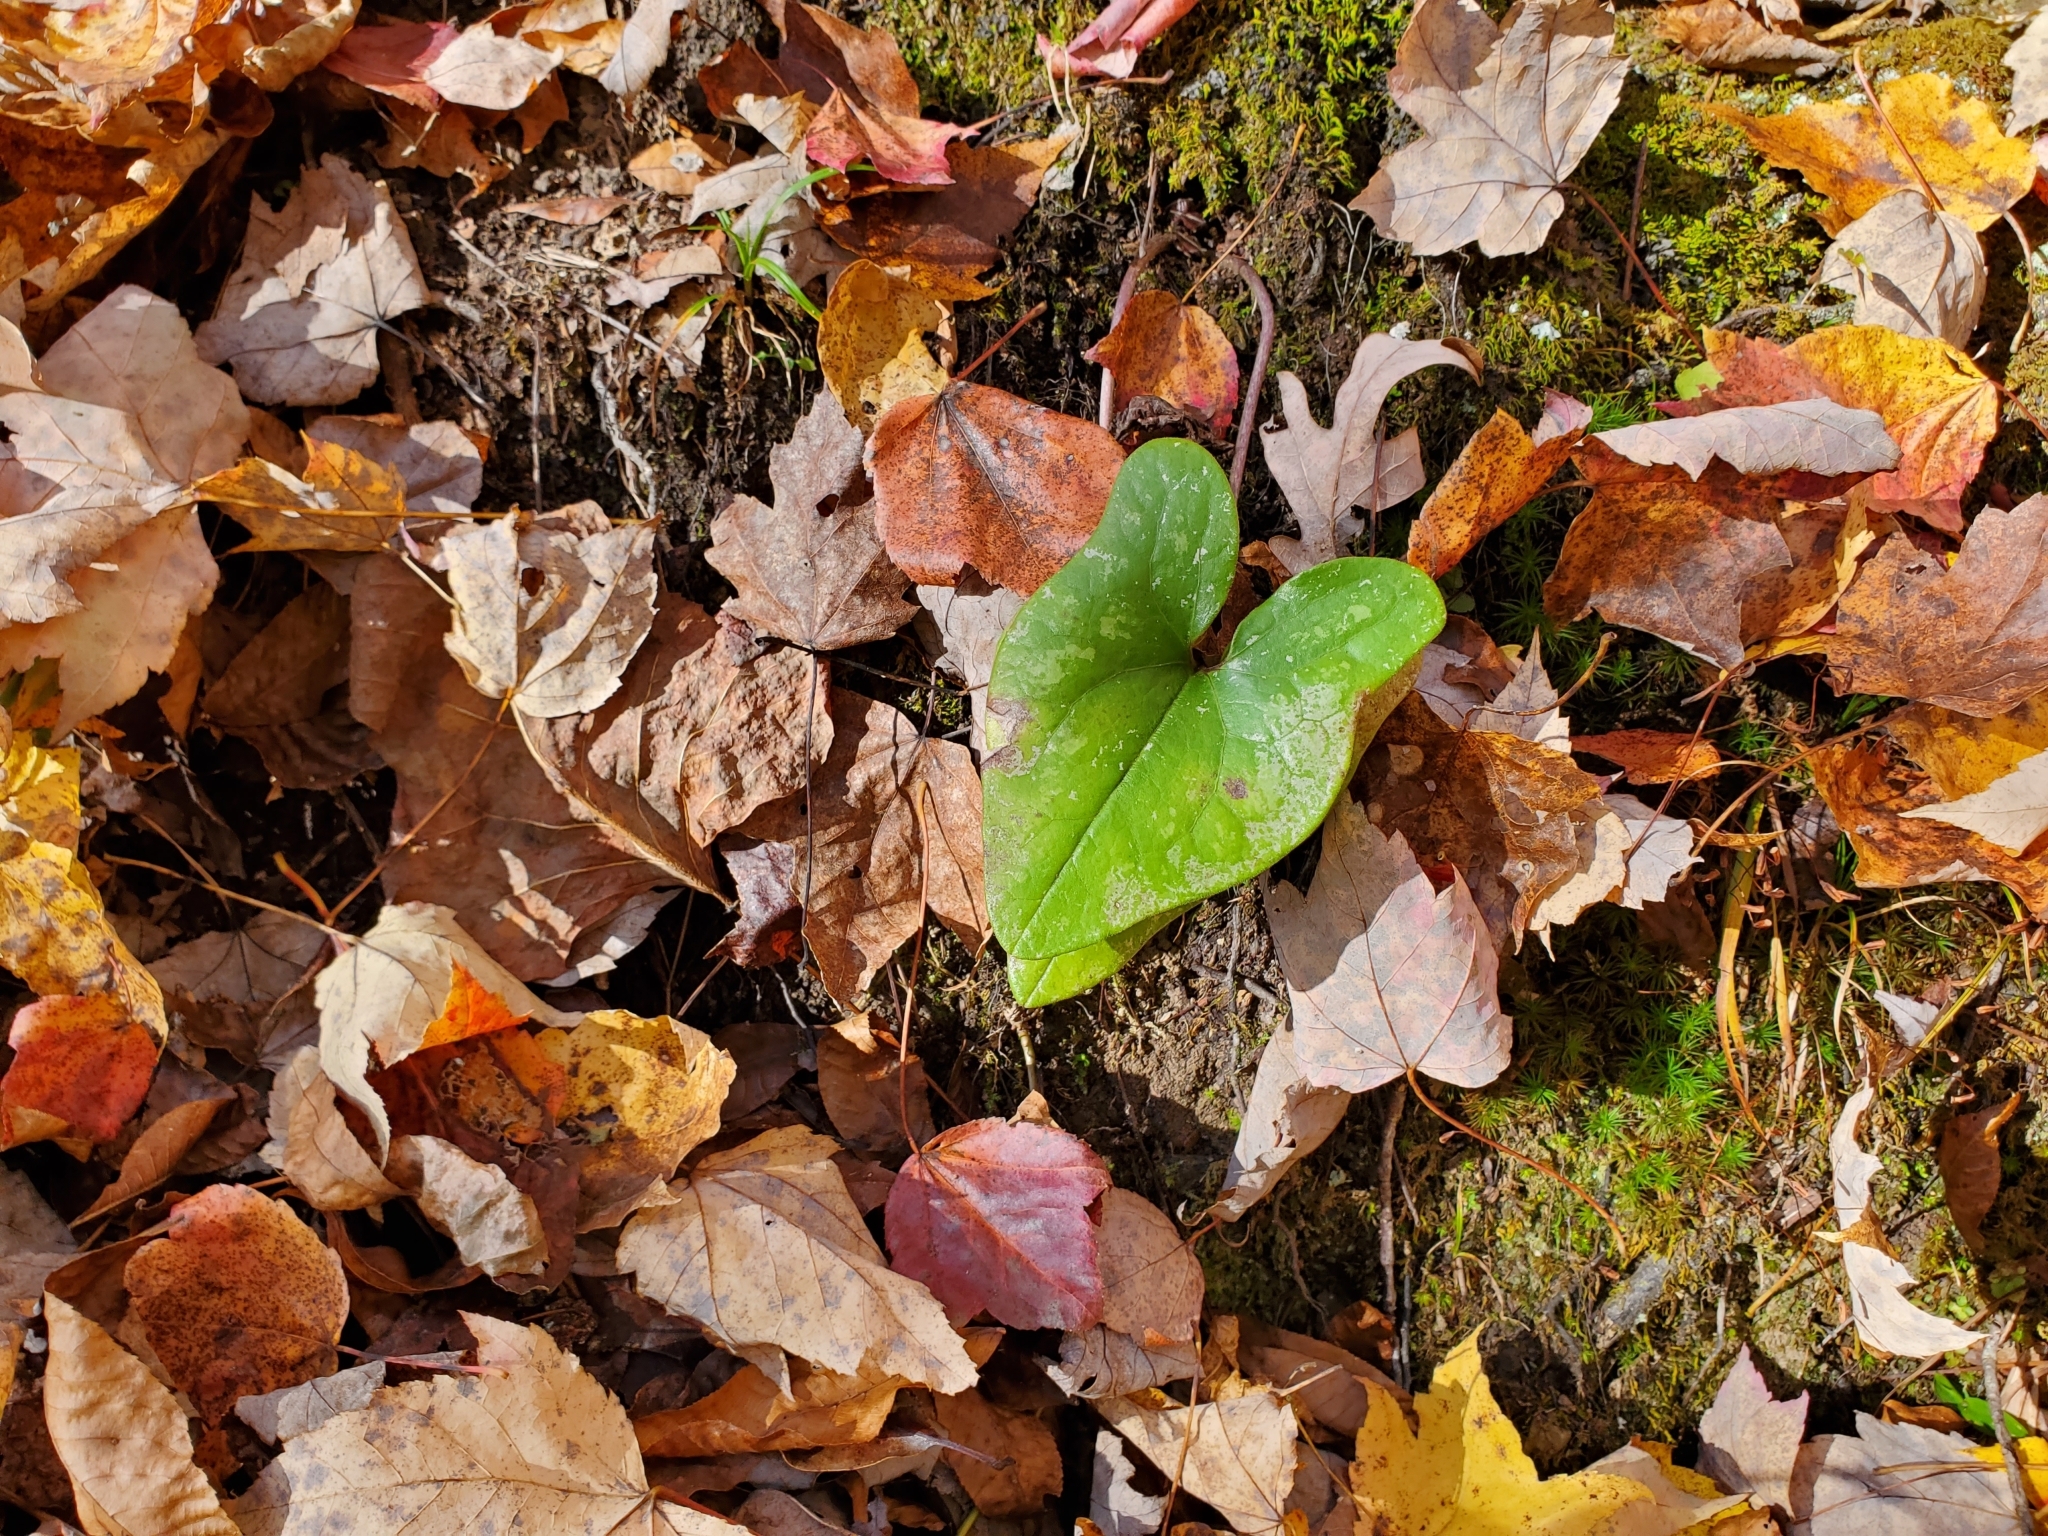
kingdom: Plantae
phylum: Tracheophyta
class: Magnoliopsida
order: Piperales
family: Aristolochiaceae
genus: Hexastylis
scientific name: Hexastylis arifolia
